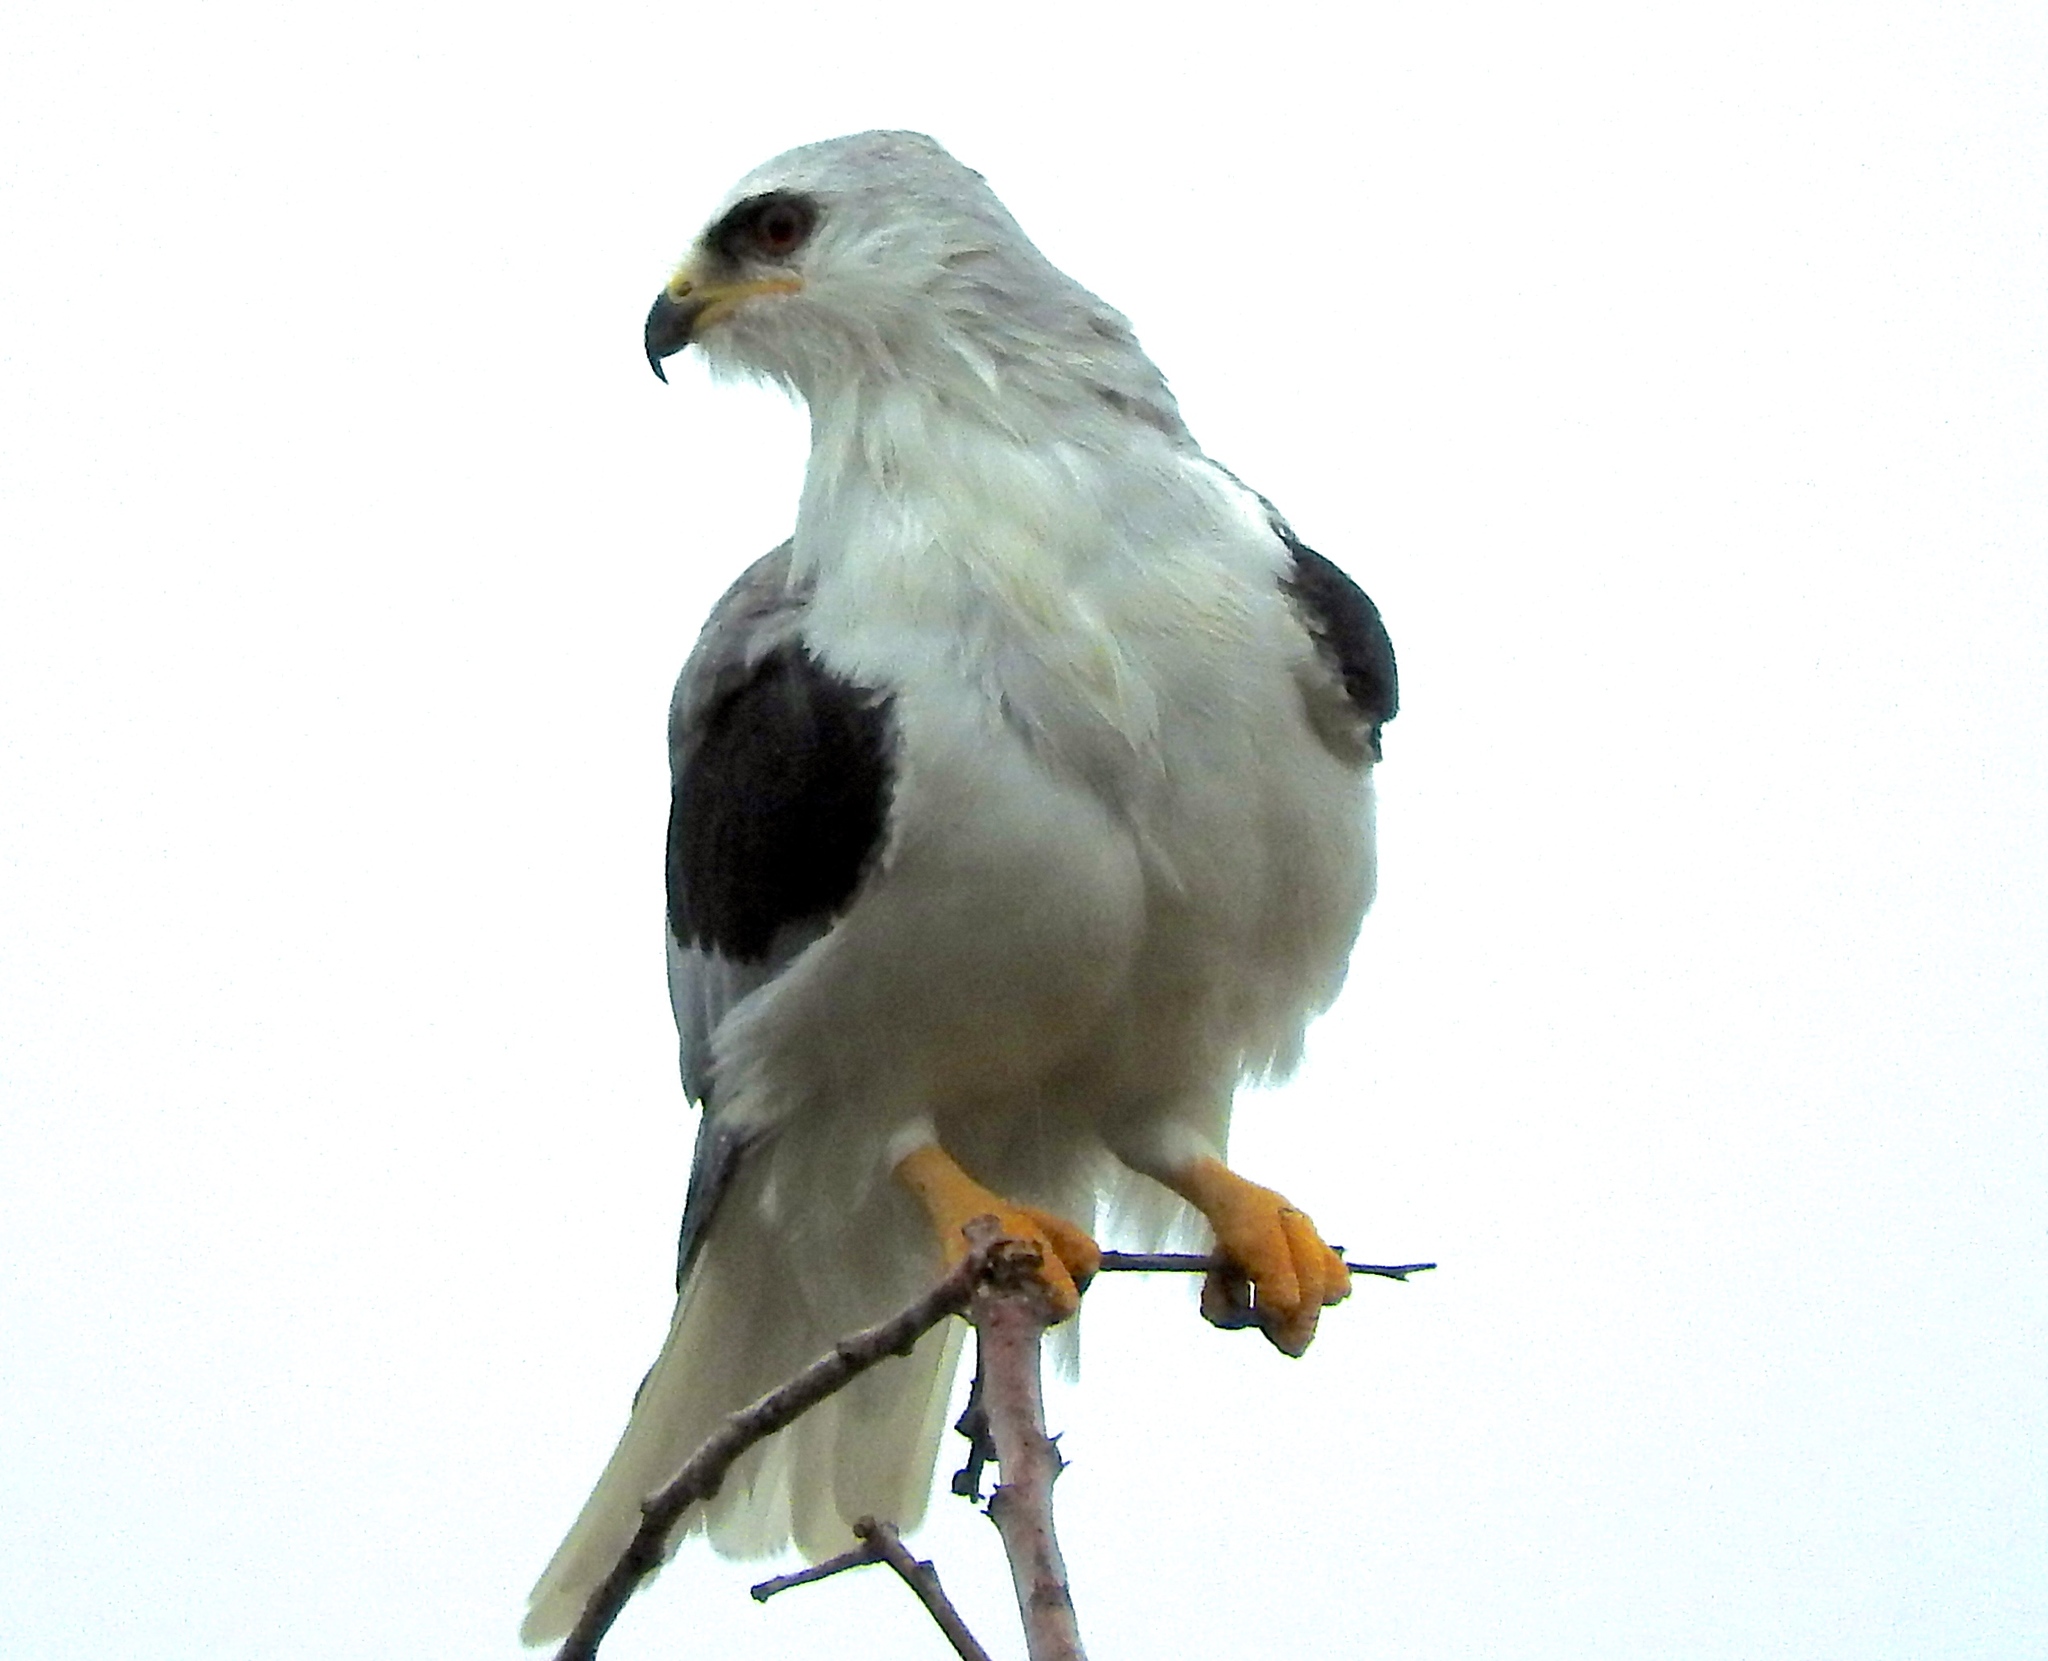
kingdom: Animalia
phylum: Chordata
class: Aves
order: Accipitriformes
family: Accipitridae
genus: Elanus
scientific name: Elanus leucurus
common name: White-tailed kite
